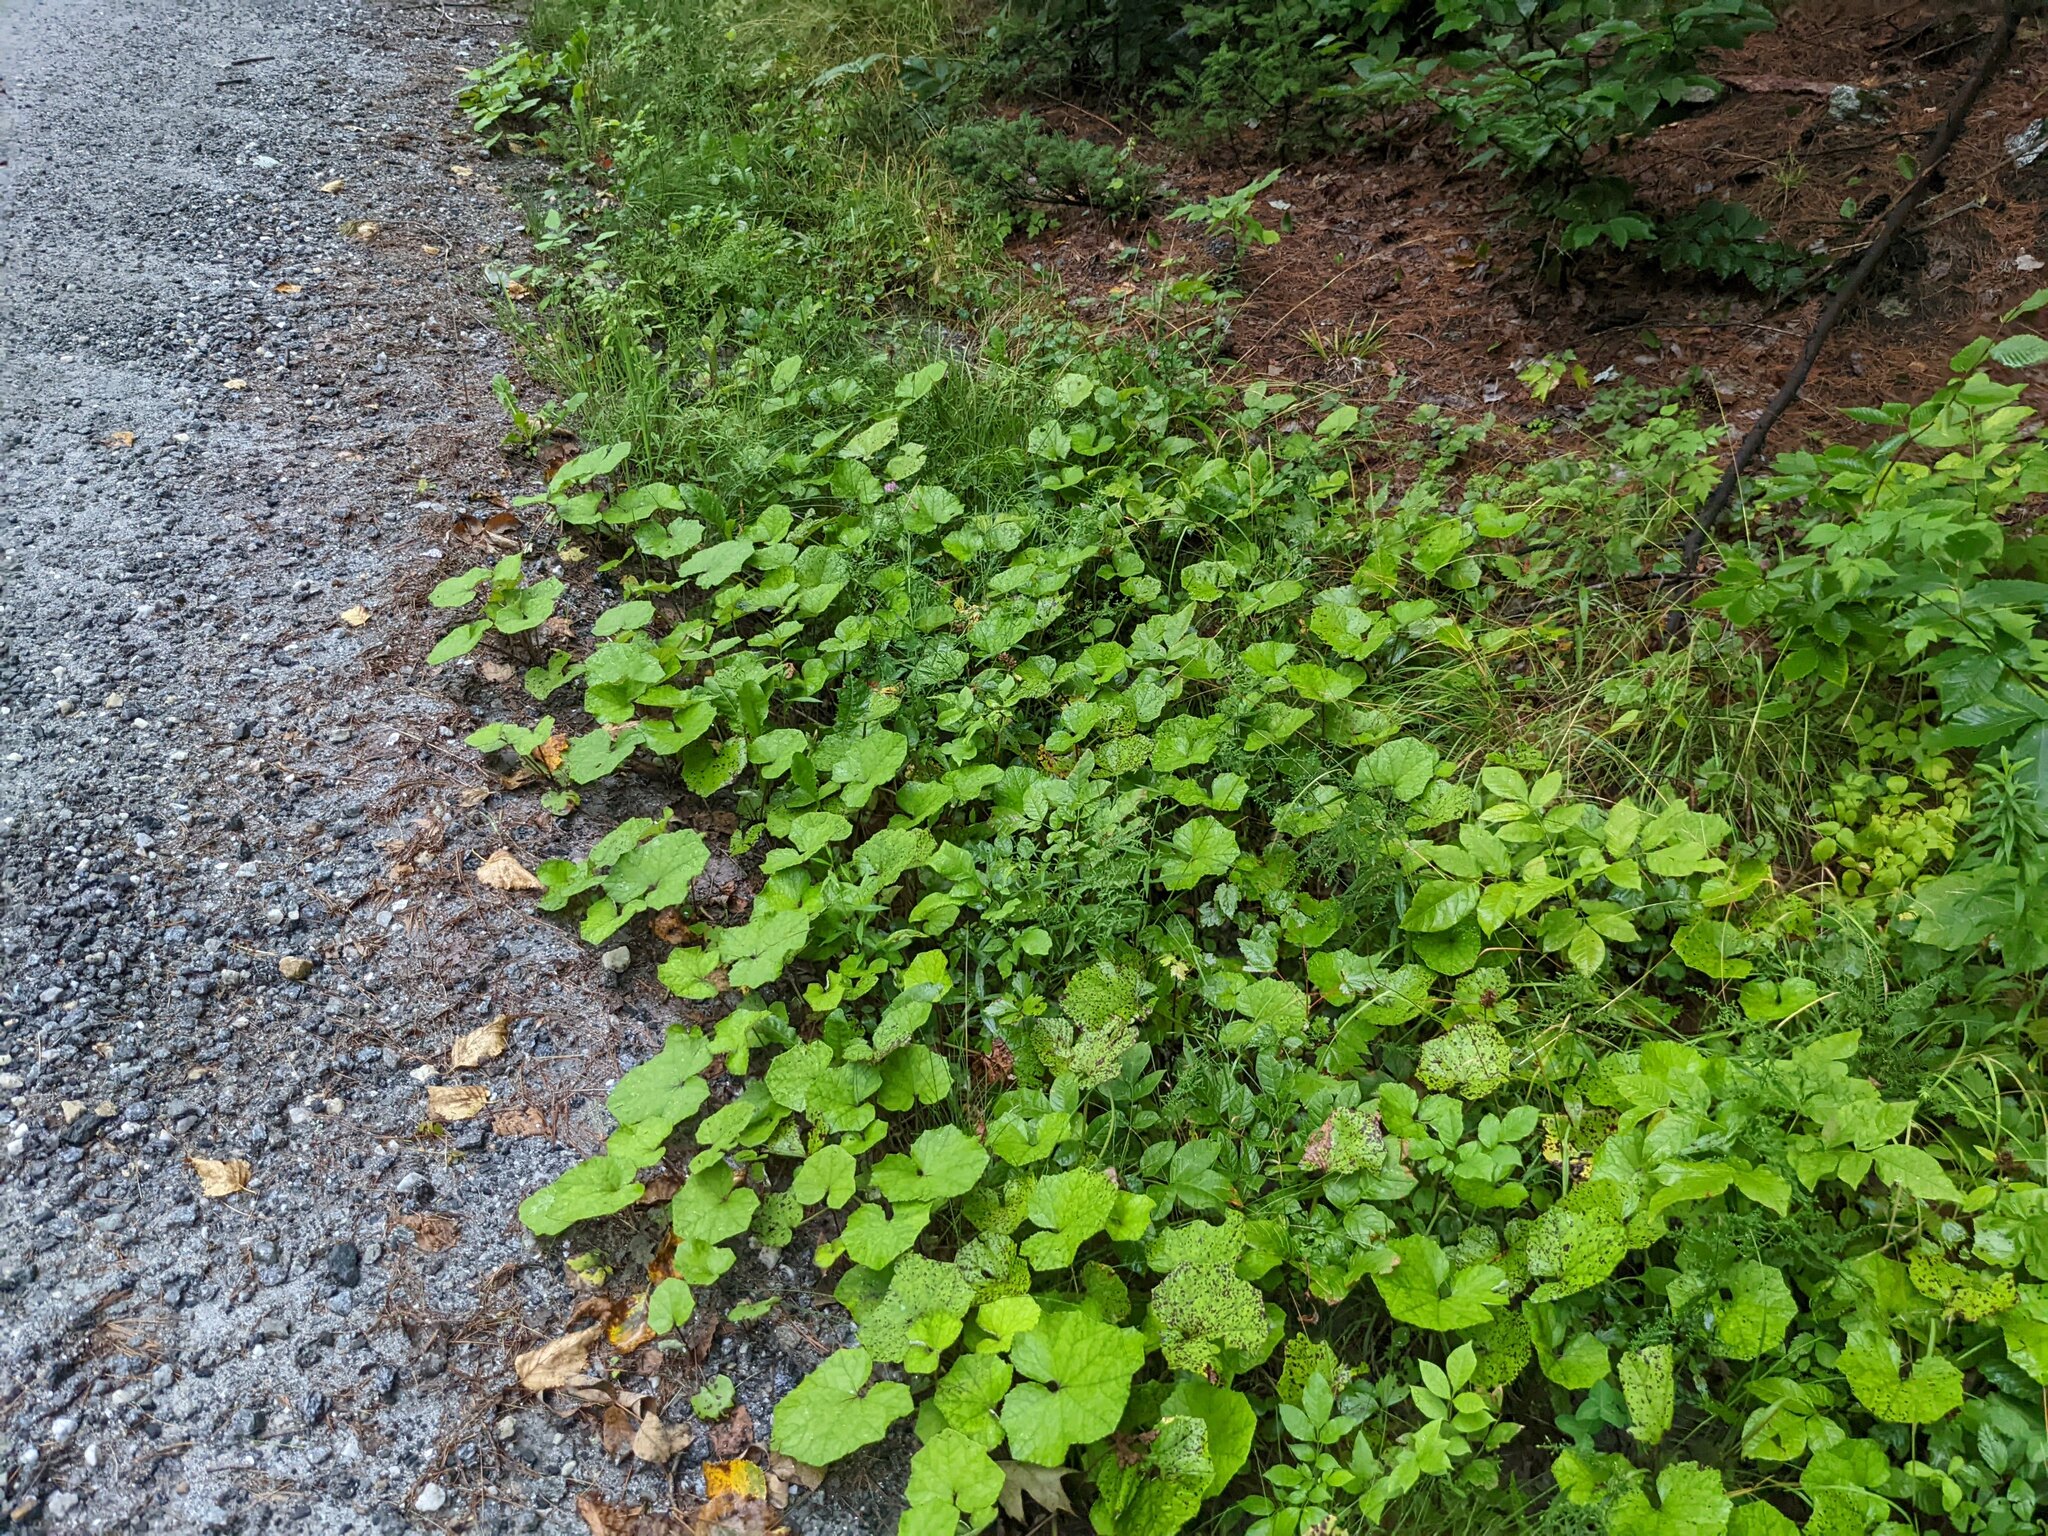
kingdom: Plantae
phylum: Tracheophyta
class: Magnoliopsida
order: Asterales
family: Asteraceae
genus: Tussilago
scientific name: Tussilago farfara
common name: Coltsfoot
